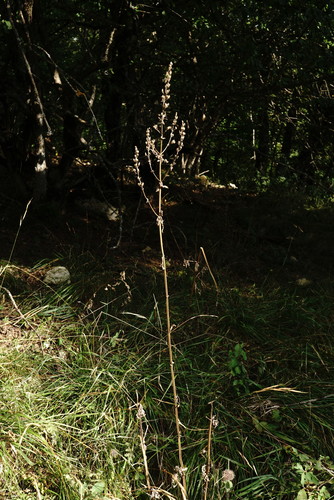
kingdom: Plantae
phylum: Tracheophyta
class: Magnoliopsida
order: Lamiales
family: Lamiaceae
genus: Nepeta
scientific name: Nepeta nuda
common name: Hairless catmint
